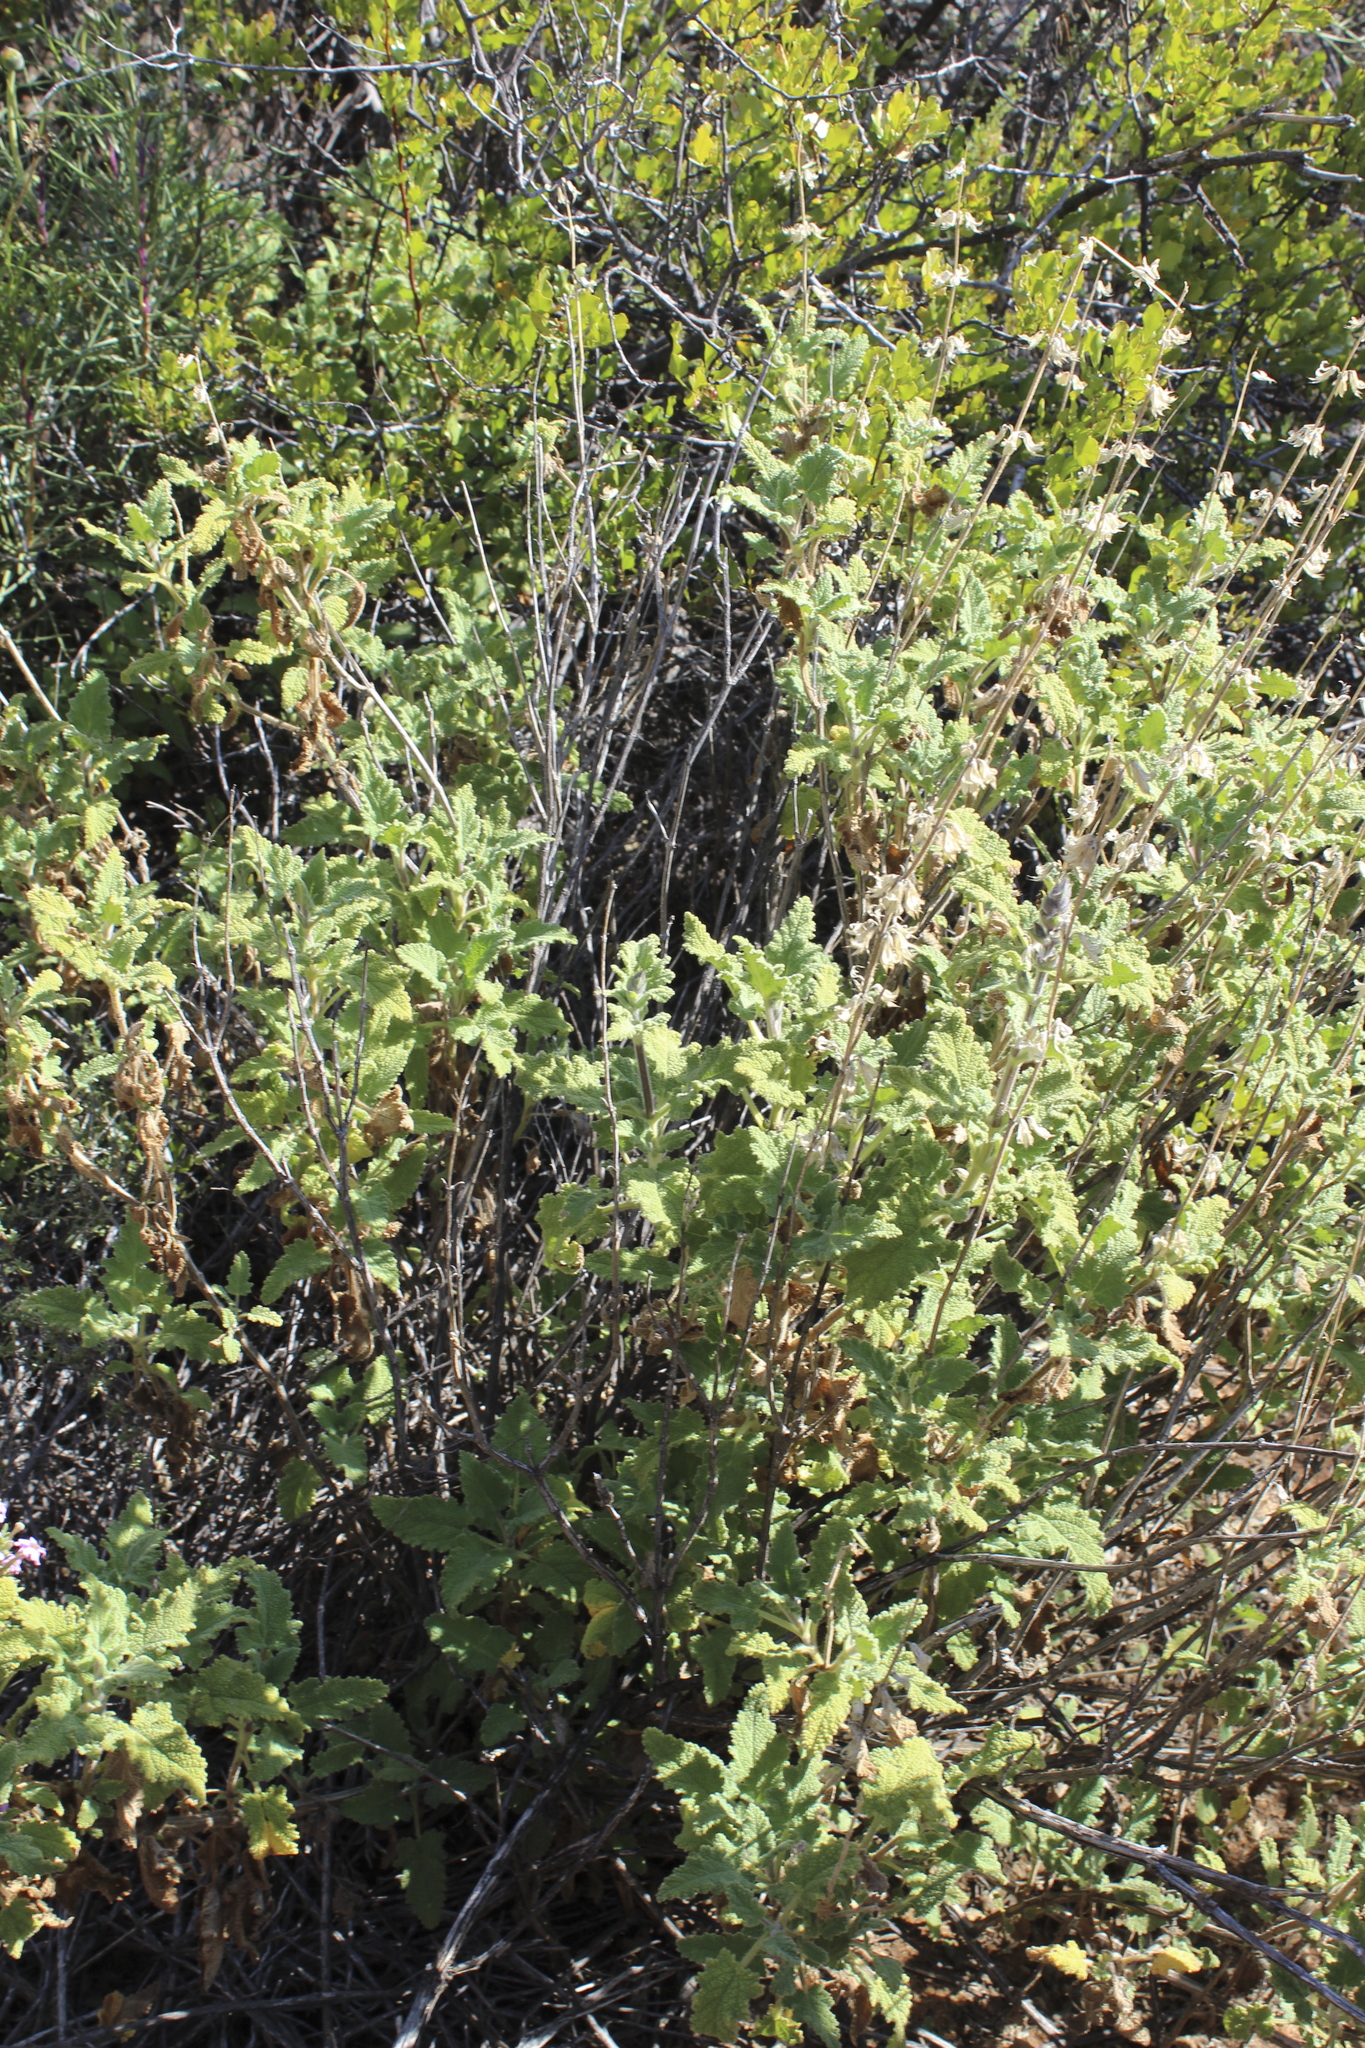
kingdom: Plantae
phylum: Tracheophyta
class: Magnoliopsida
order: Lamiales
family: Lamiaceae
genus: Salvia
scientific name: Salvia disermas
